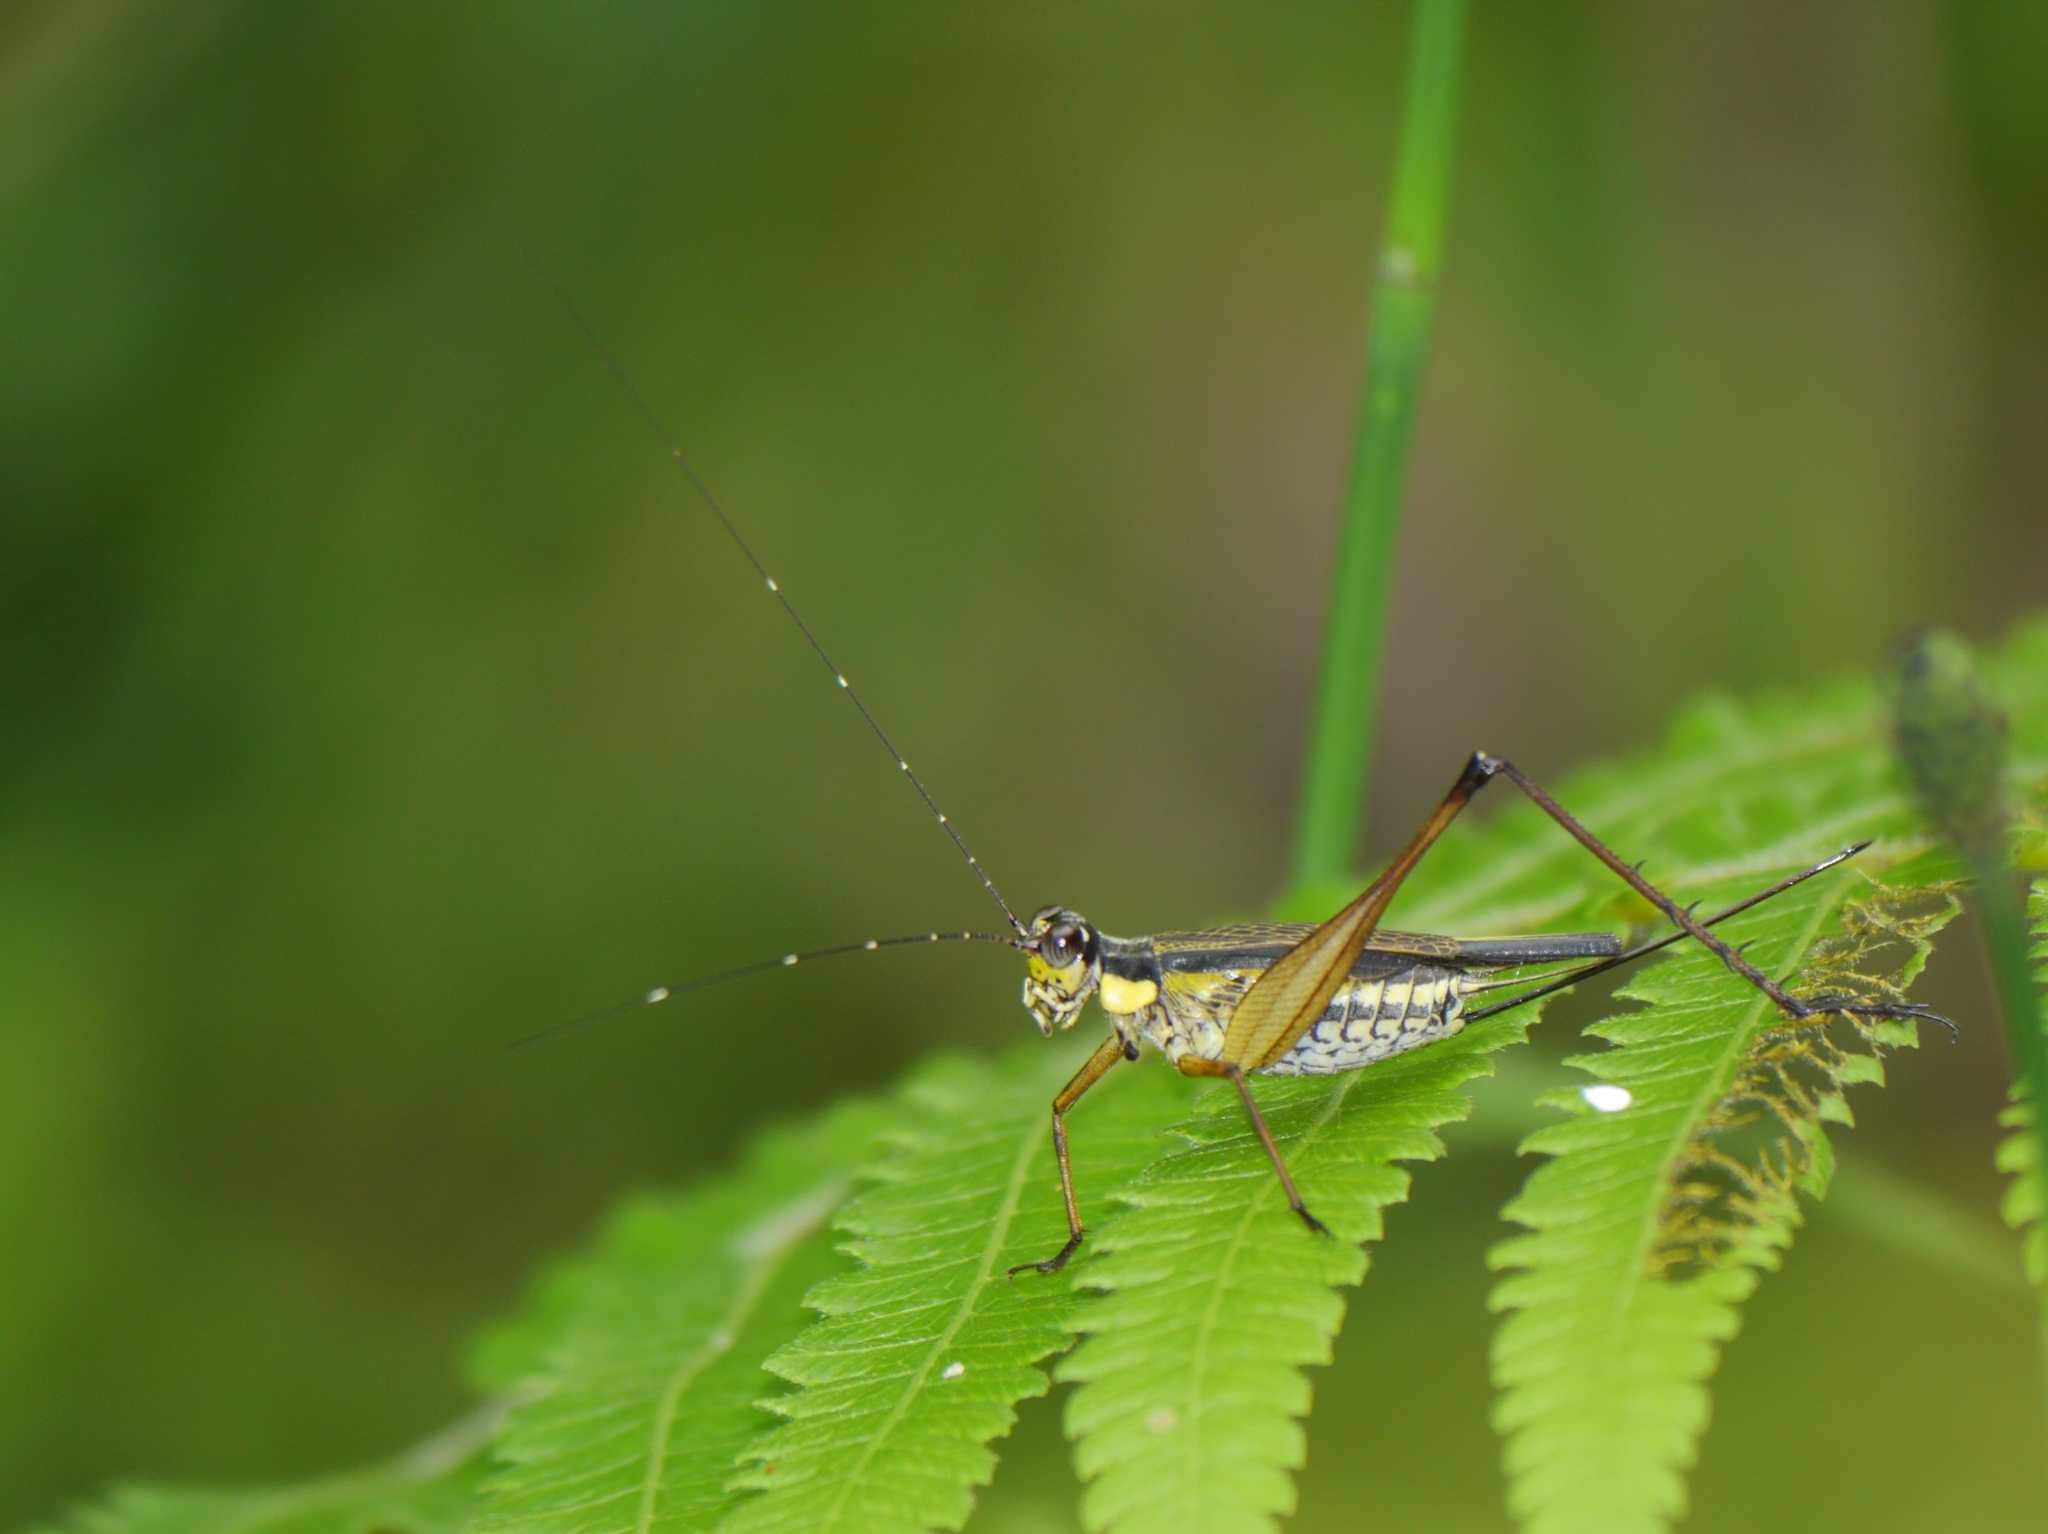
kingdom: Animalia
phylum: Arthropoda
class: Insecta
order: Orthoptera
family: Gryllidae
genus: Nisitrus
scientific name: Nisitrus vittatus
